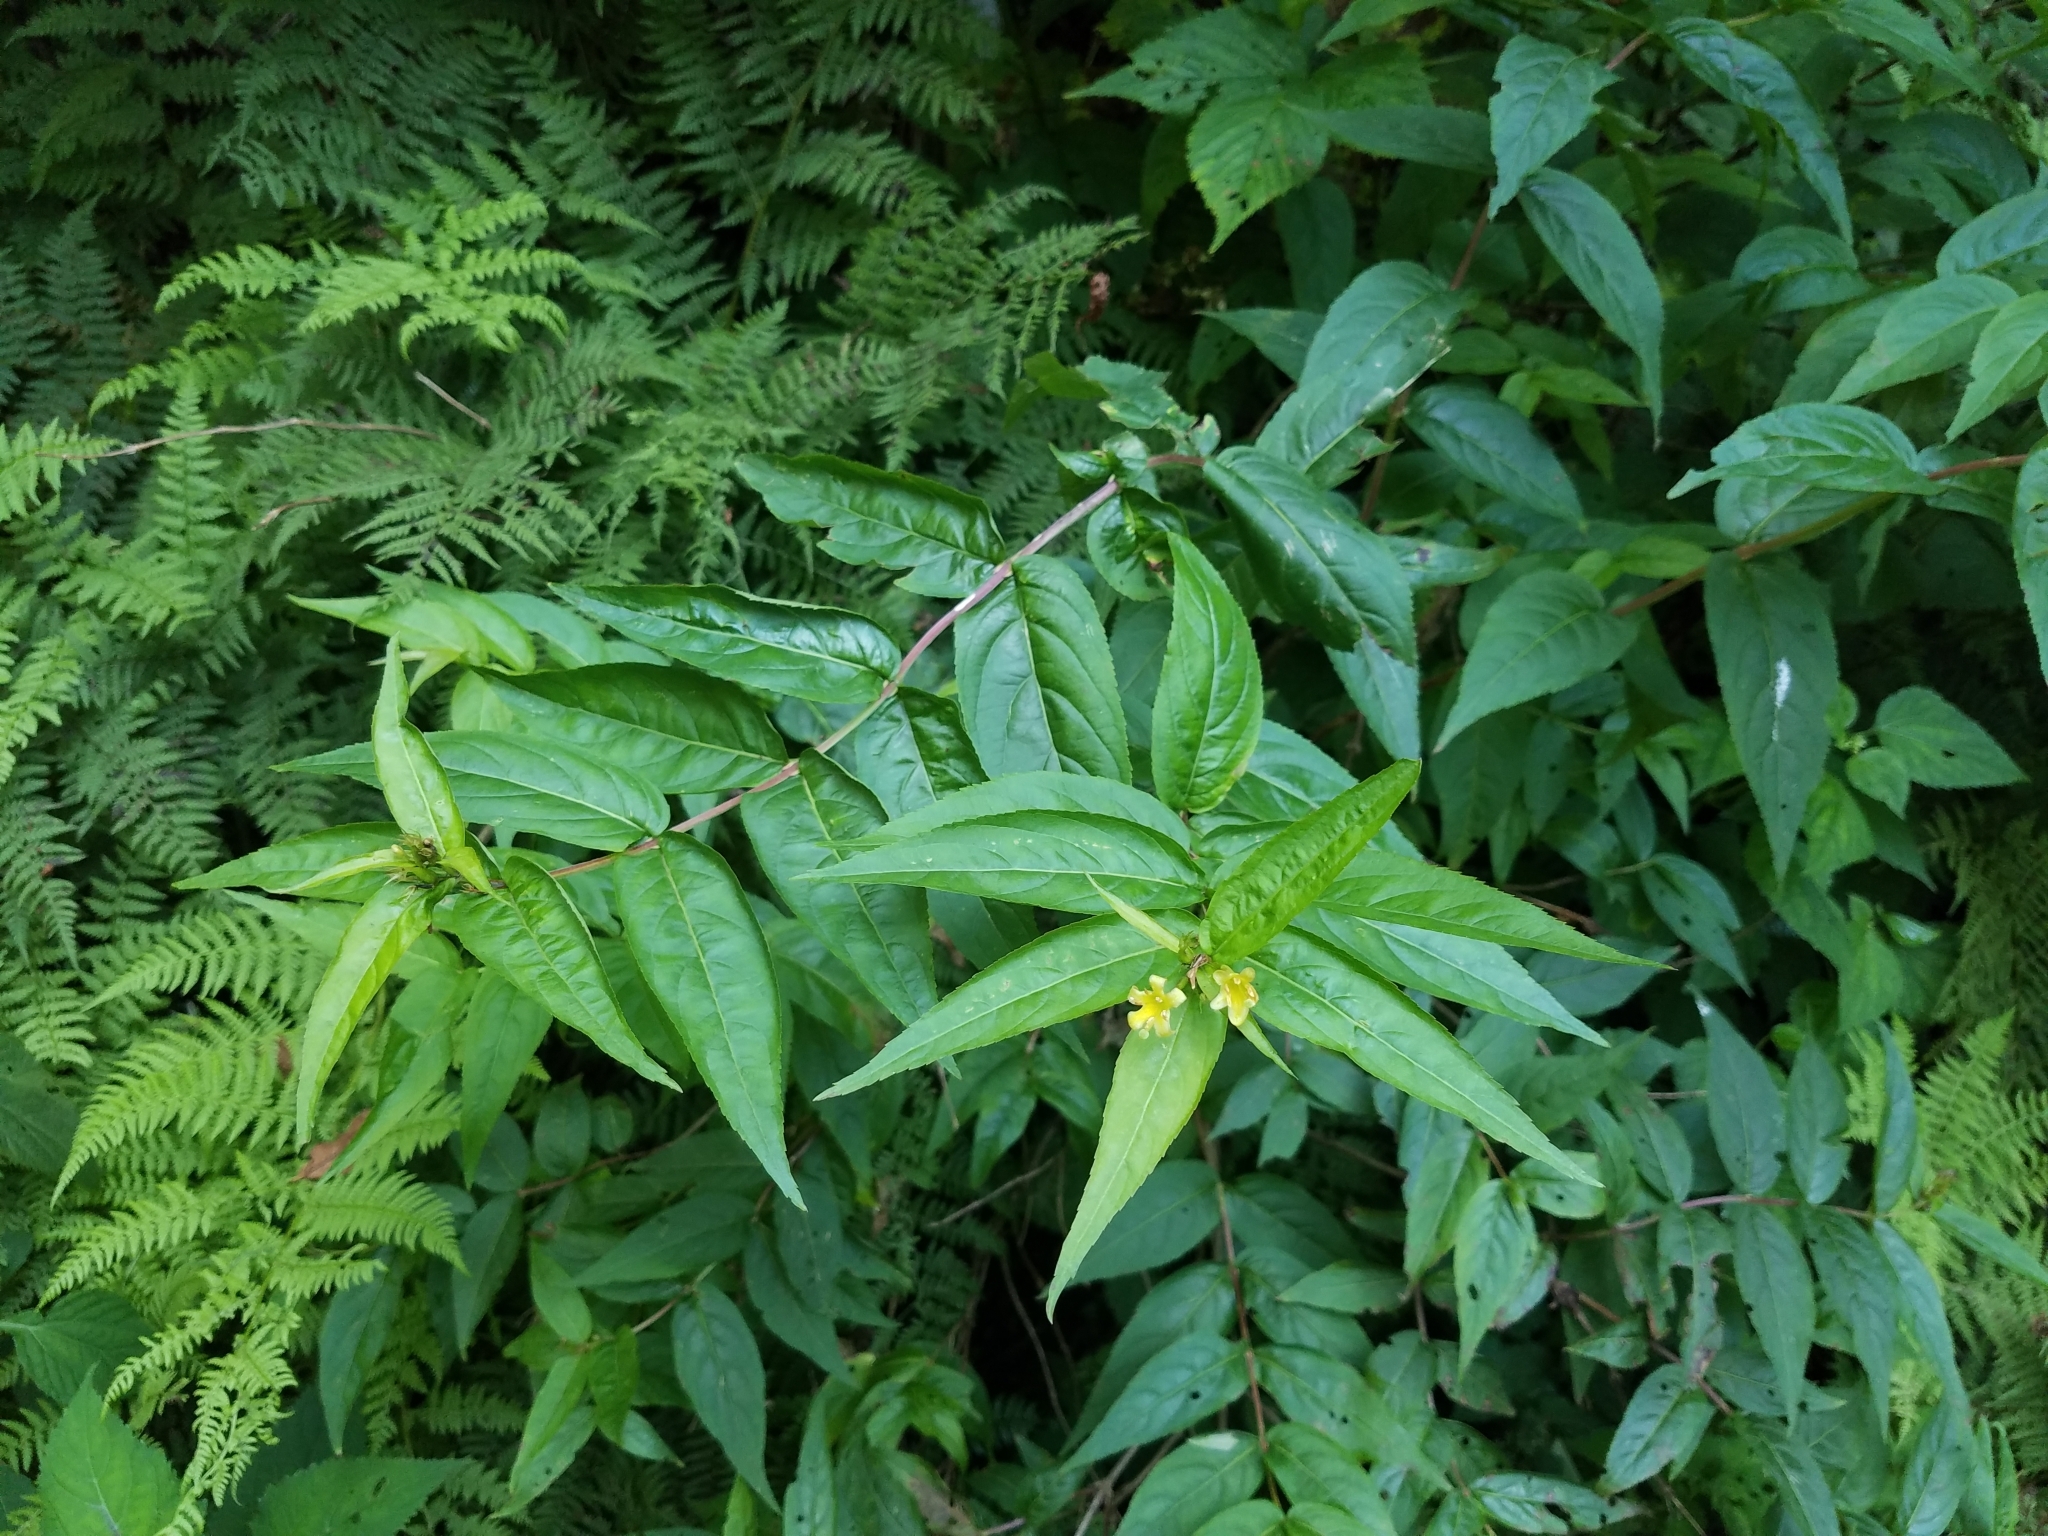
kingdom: Plantae
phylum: Tracheophyta
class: Magnoliopsida
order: Dipsacales
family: Caprifoliaceae
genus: Diervilla
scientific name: Diervilla sessilifolia
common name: Bush-honeysuckle
